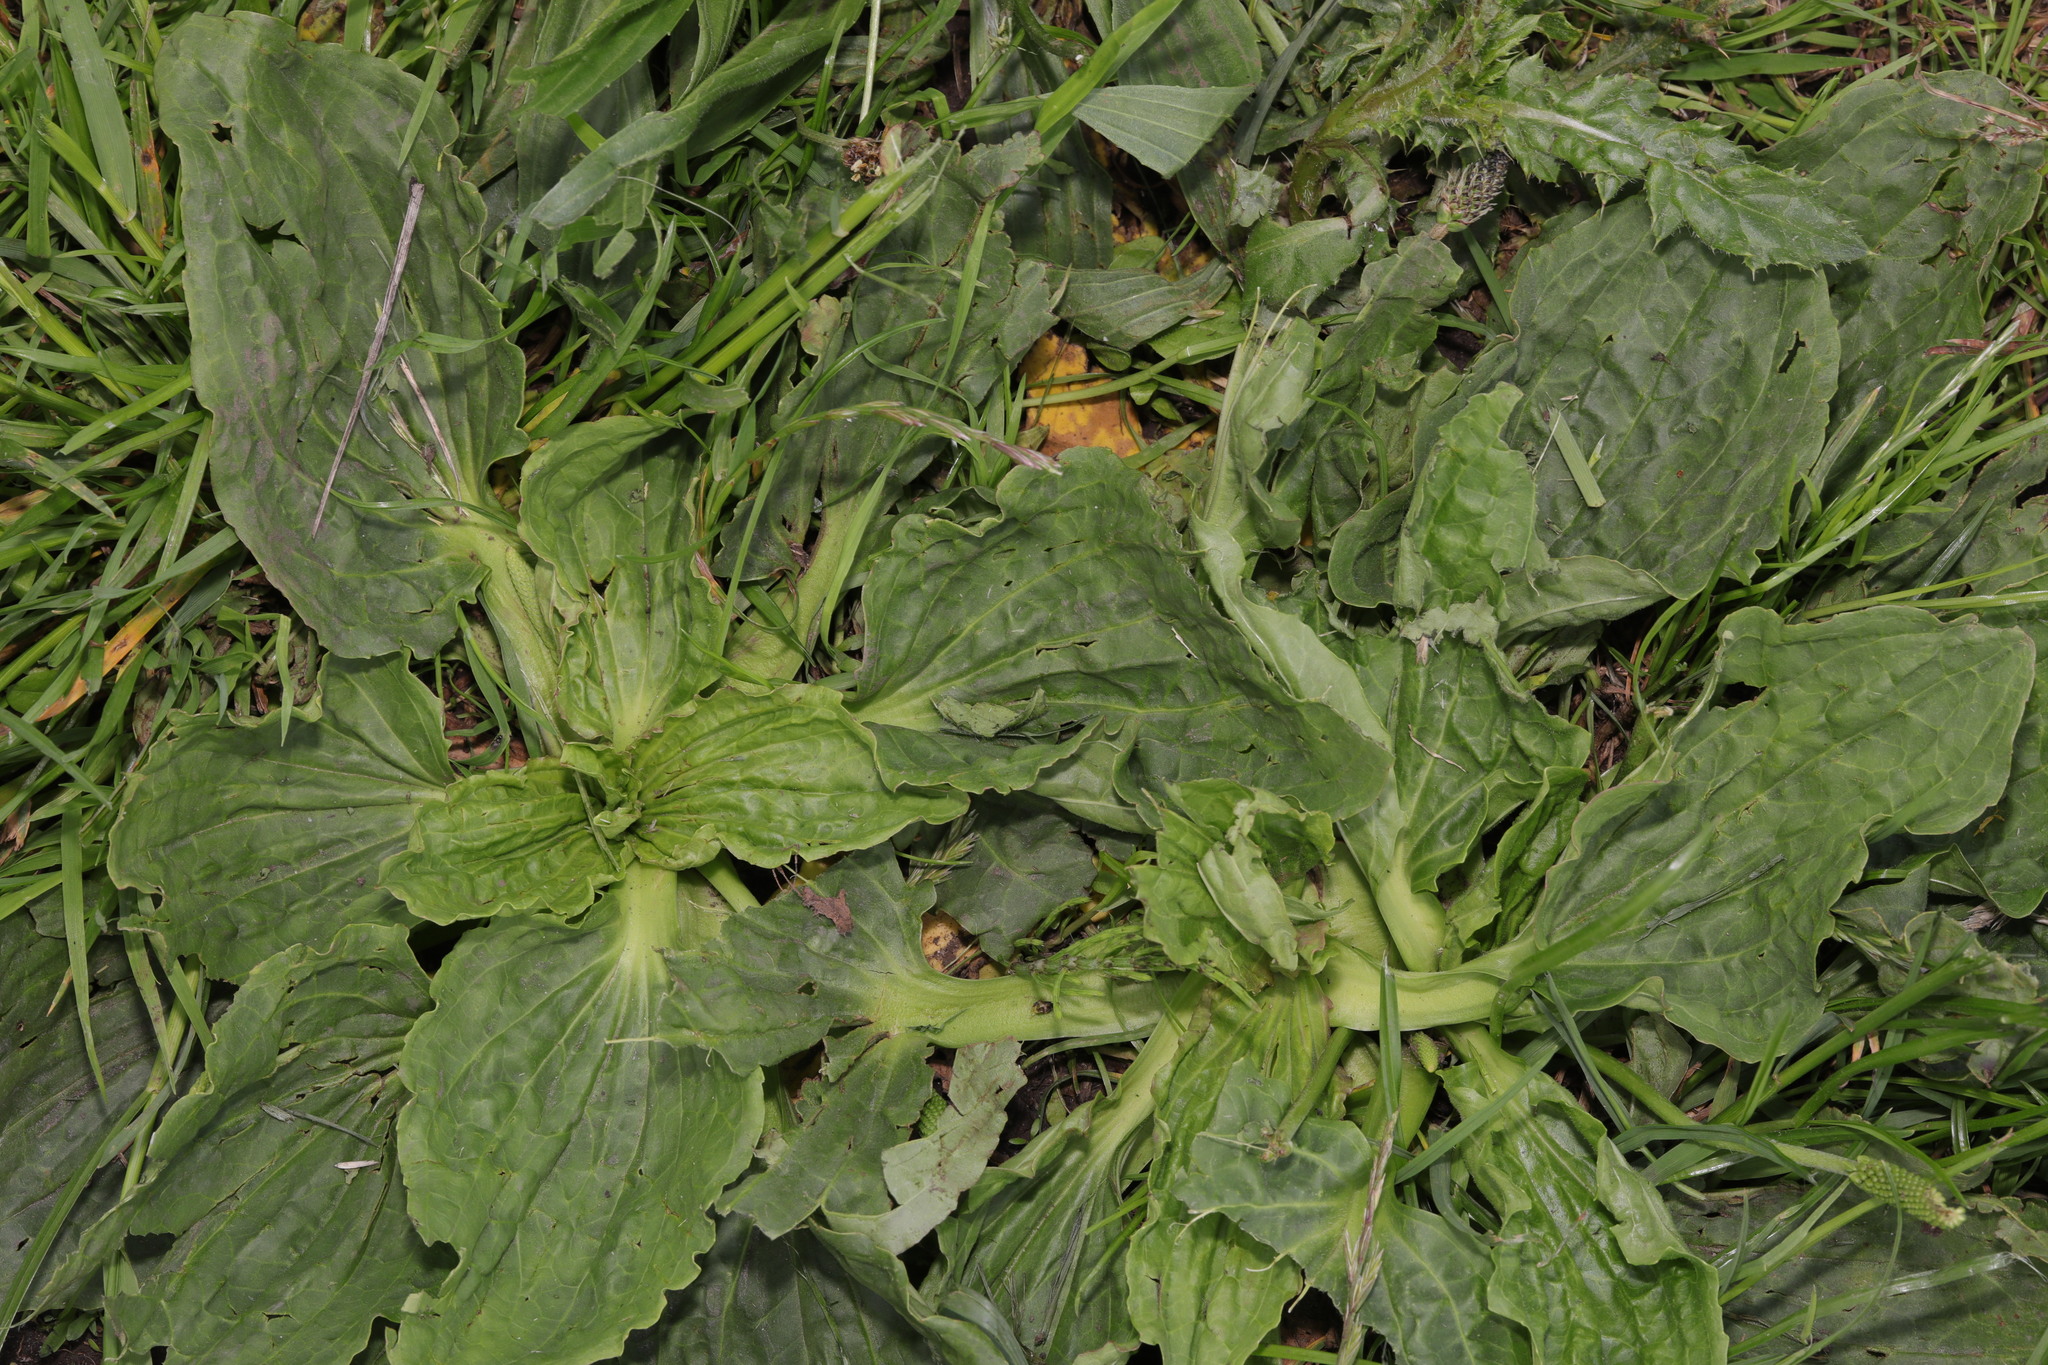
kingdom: Plantae
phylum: Tracheophyta
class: Magnoliopsida
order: Lamiales
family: Plantaginaceae
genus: Plantago
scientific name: Plantago major
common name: Common plantain
